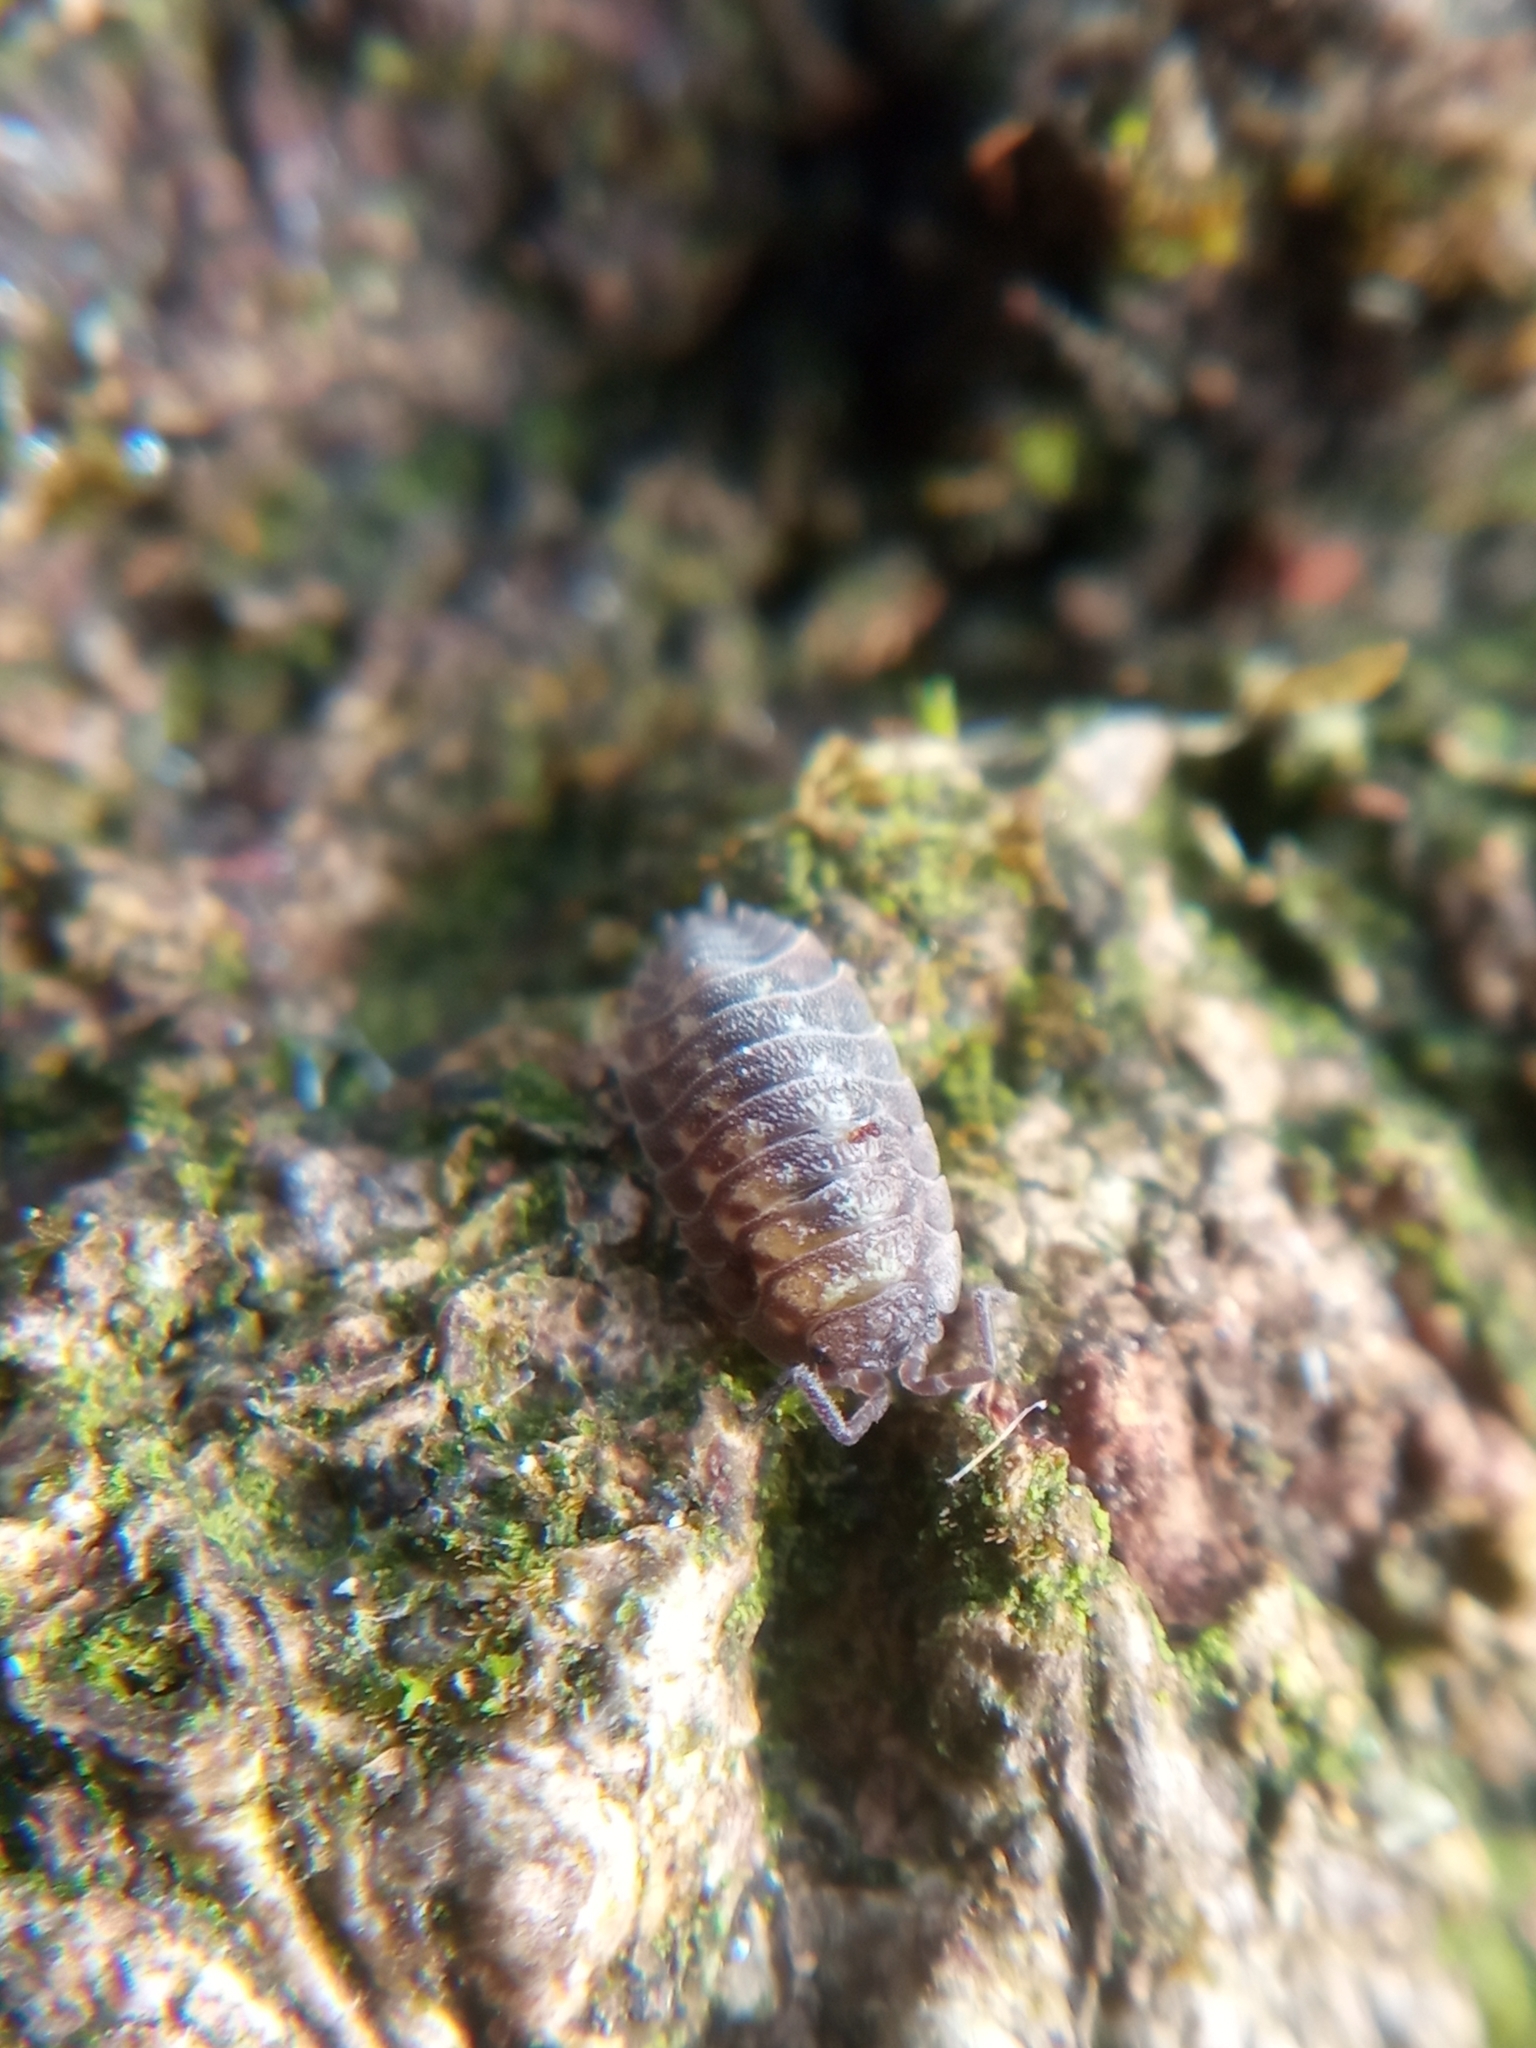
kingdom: Animalia
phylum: Arthropoda
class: Malacostraca
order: Isopoda
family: Oniscidae
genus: Oniscus
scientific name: Oniscus asellus
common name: Common shiny woodlouse
